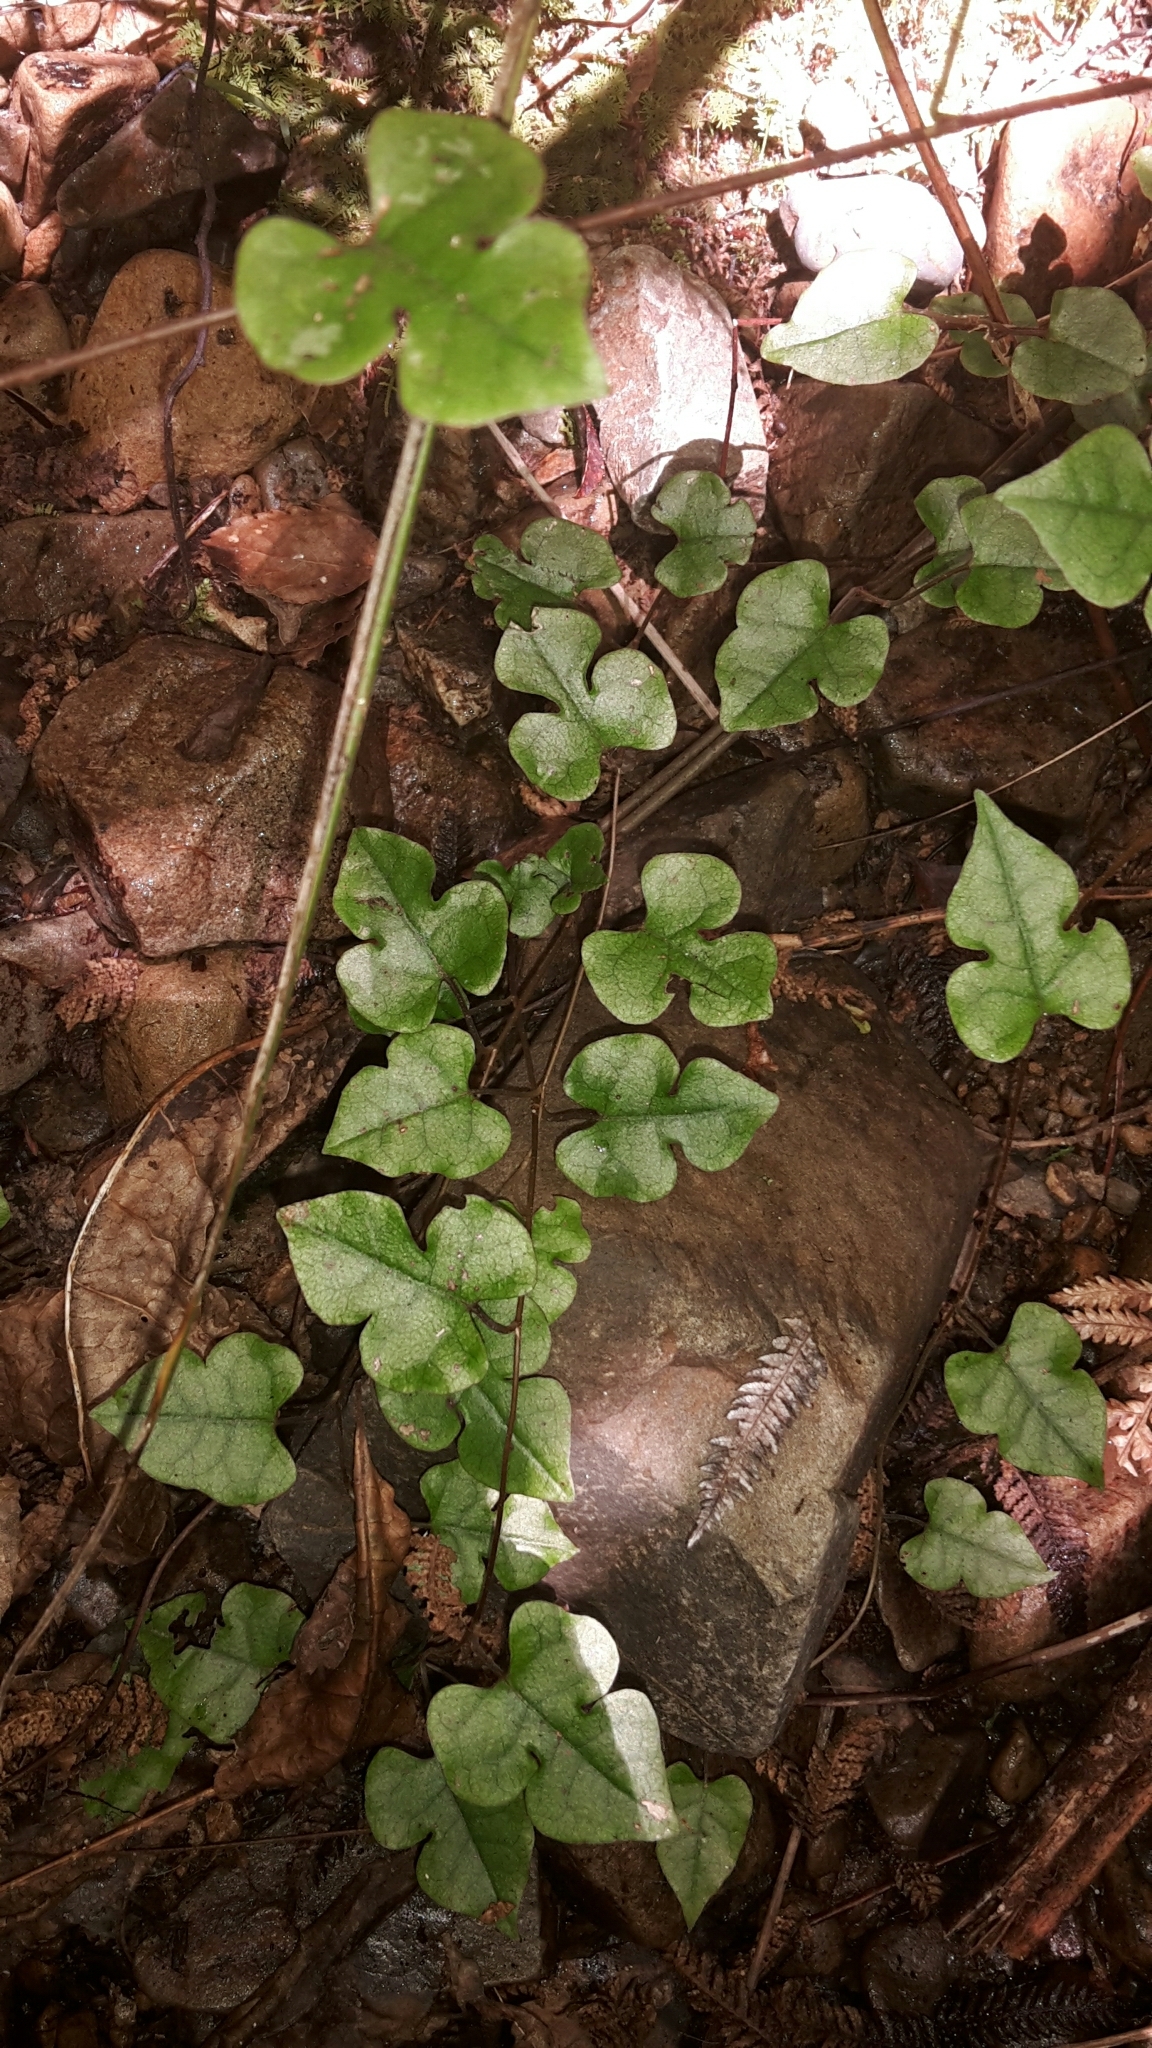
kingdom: Plantae
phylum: Tracheophyta
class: Magnoliopsida
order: Caryophyllales
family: Polygonaceae
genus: Muehlenbeckia
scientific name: Muehlenbeckia australis
